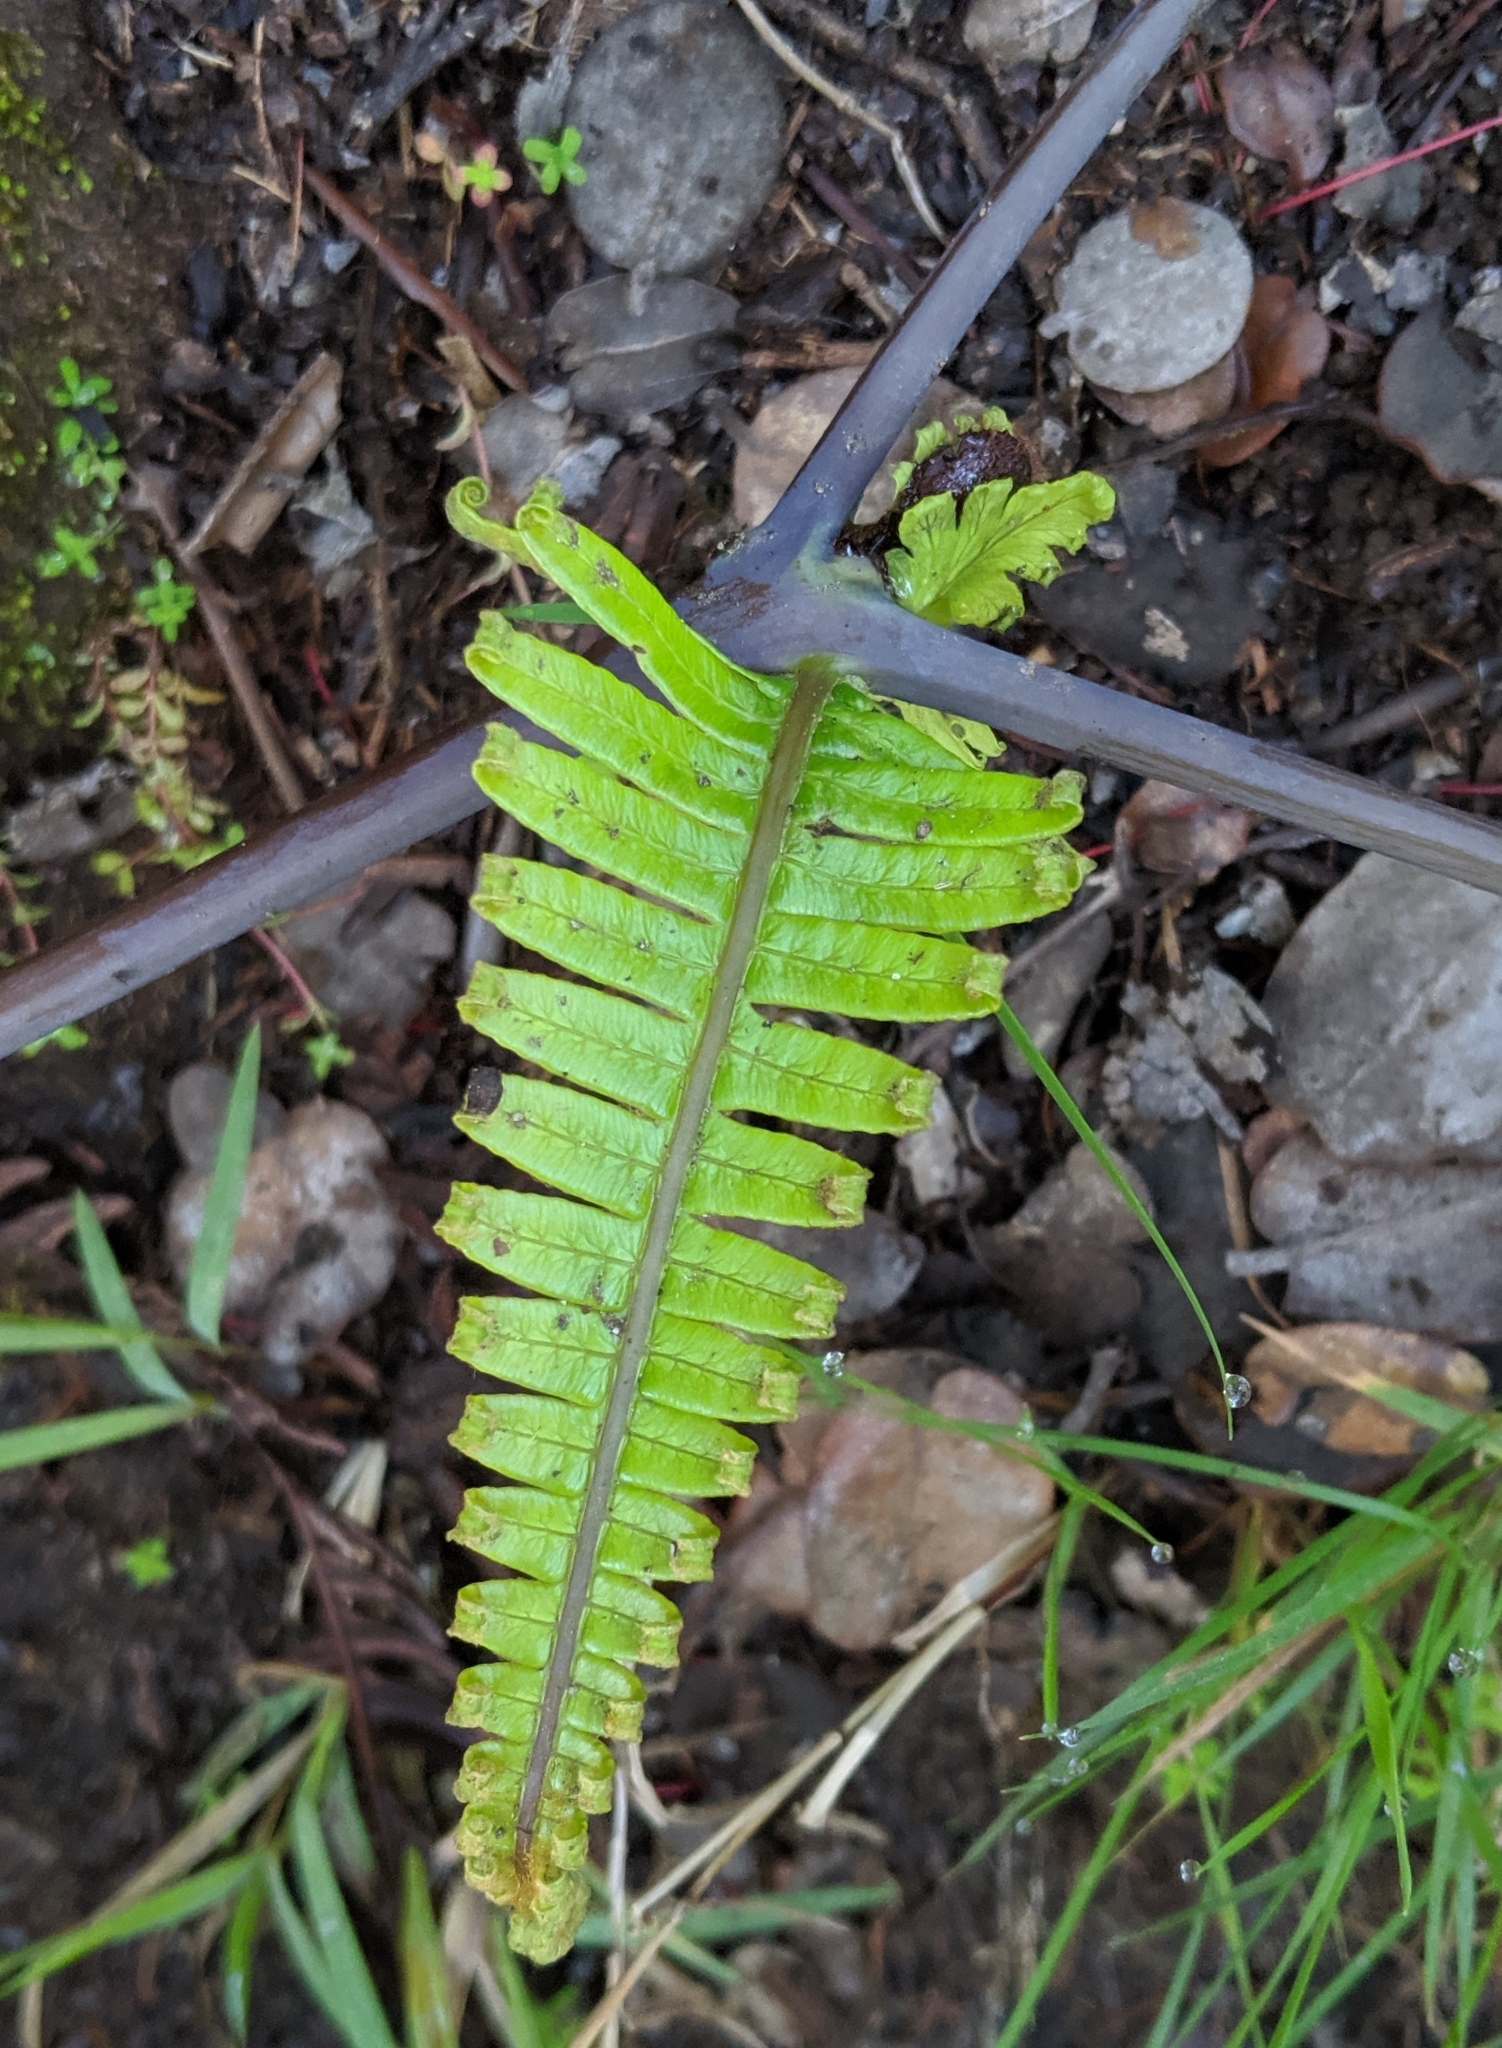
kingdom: Plantae
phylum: Tracheophyta
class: Polypodiopsida
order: Gleicheniales
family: Gleicheniaceae
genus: Dicranopteris
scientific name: Dicranopteris linearis
